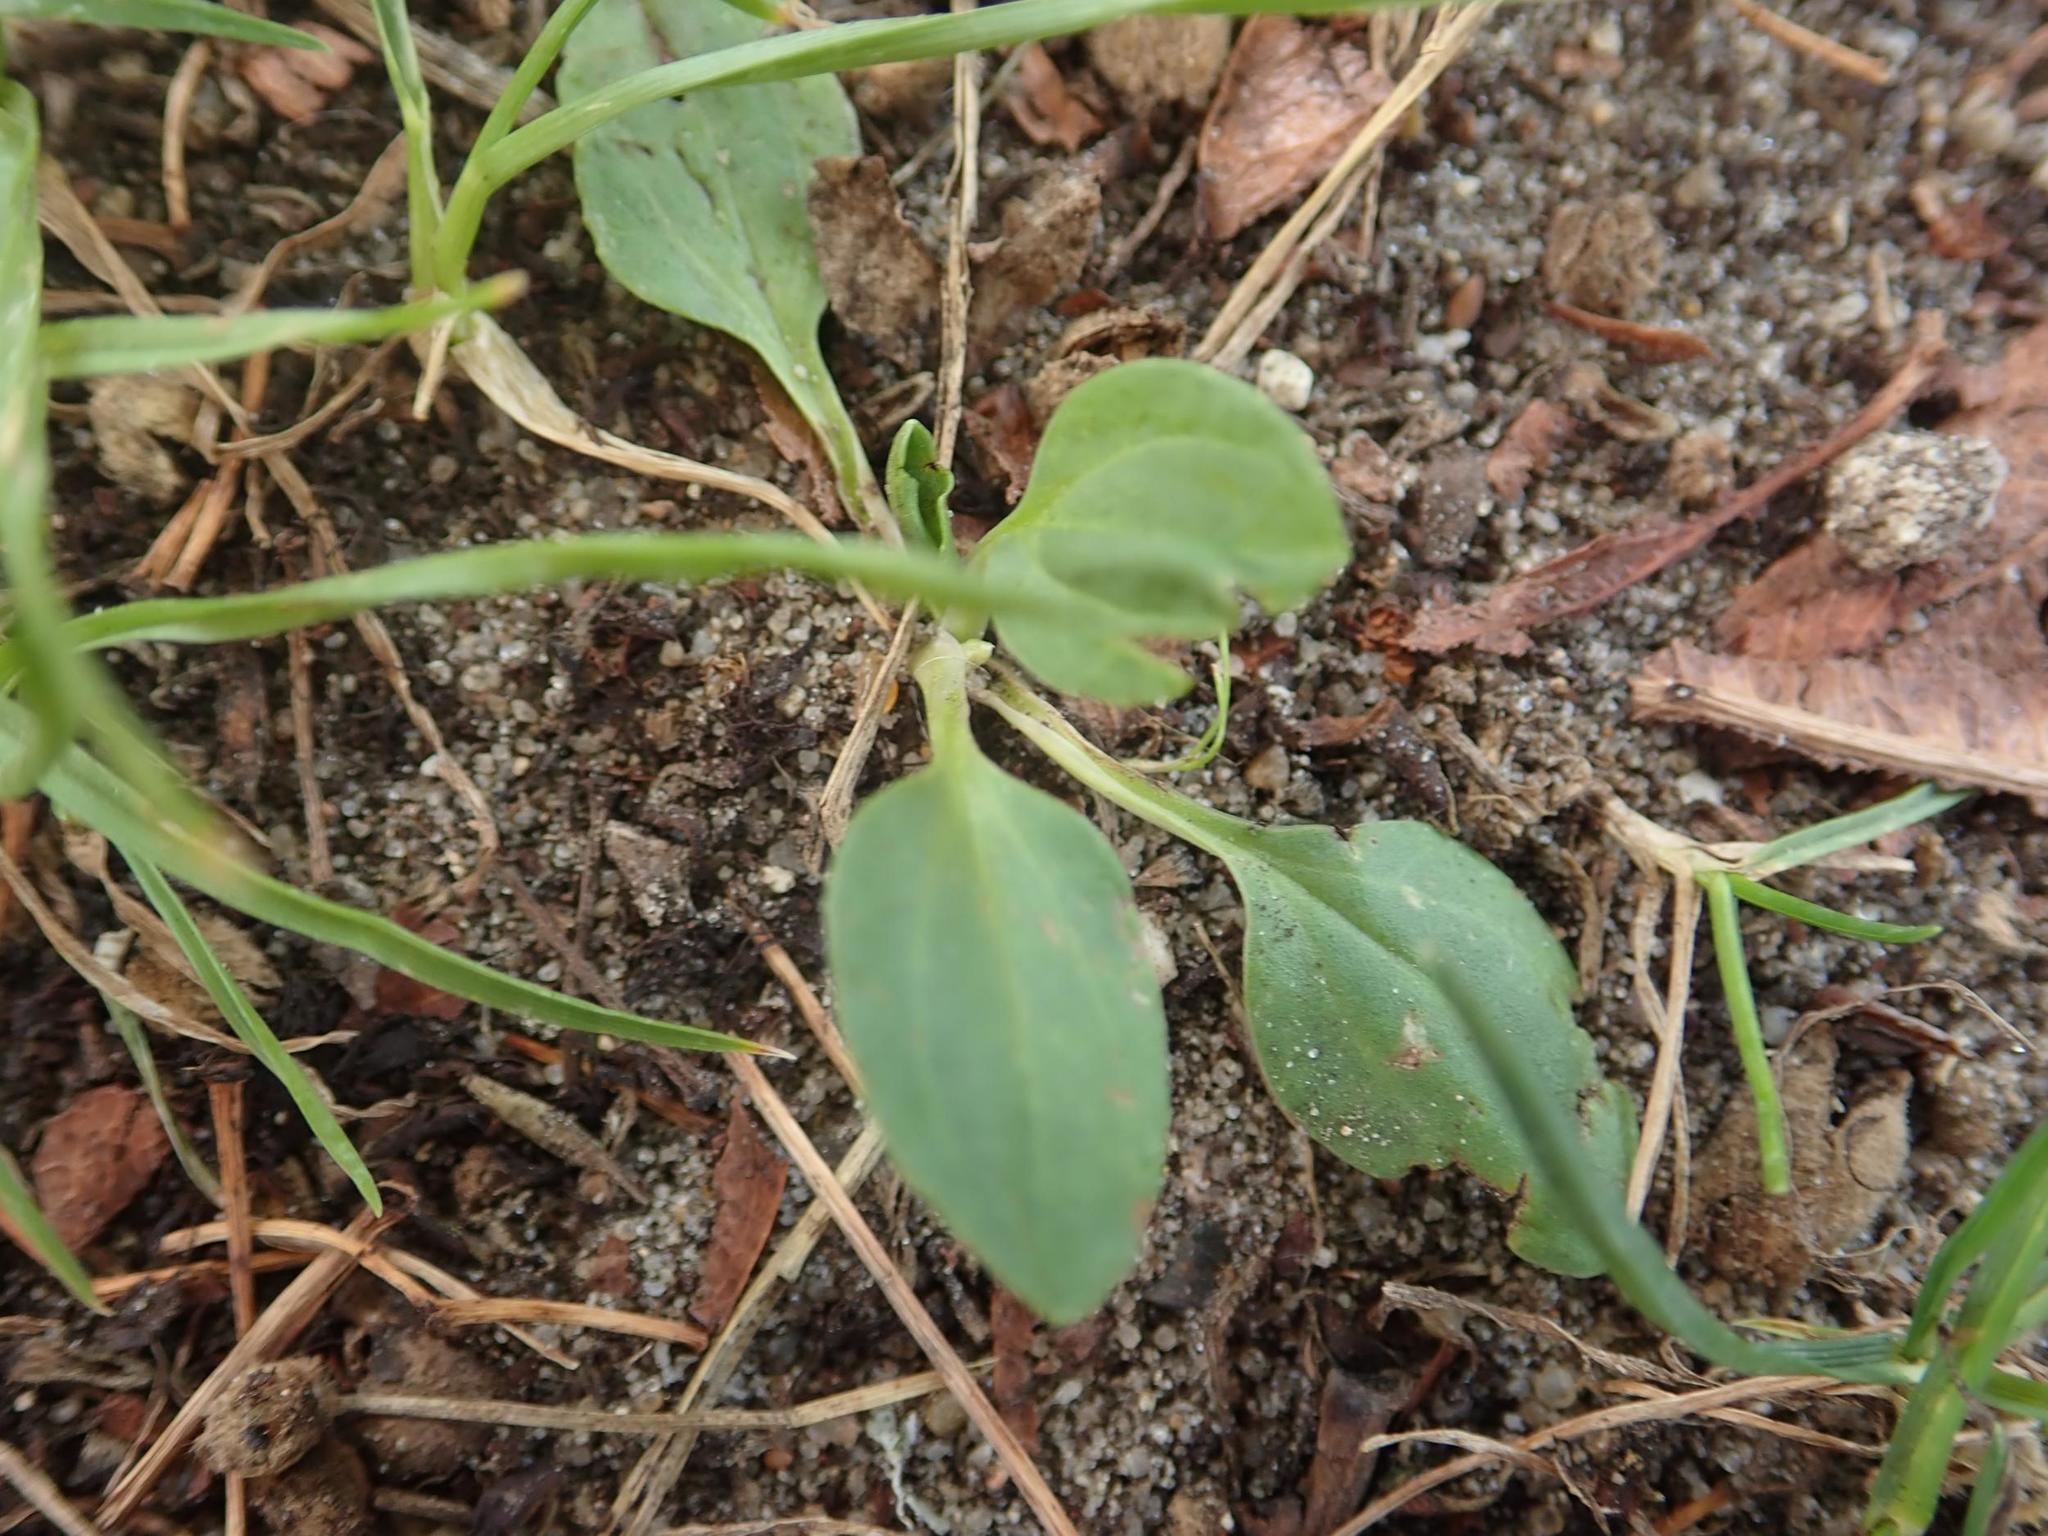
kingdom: Plantae
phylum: Tracheophyta
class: Magnoliopsida
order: Lamiales
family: Plantaginaceae
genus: Plantago
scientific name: Plantago major
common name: Common plantain
